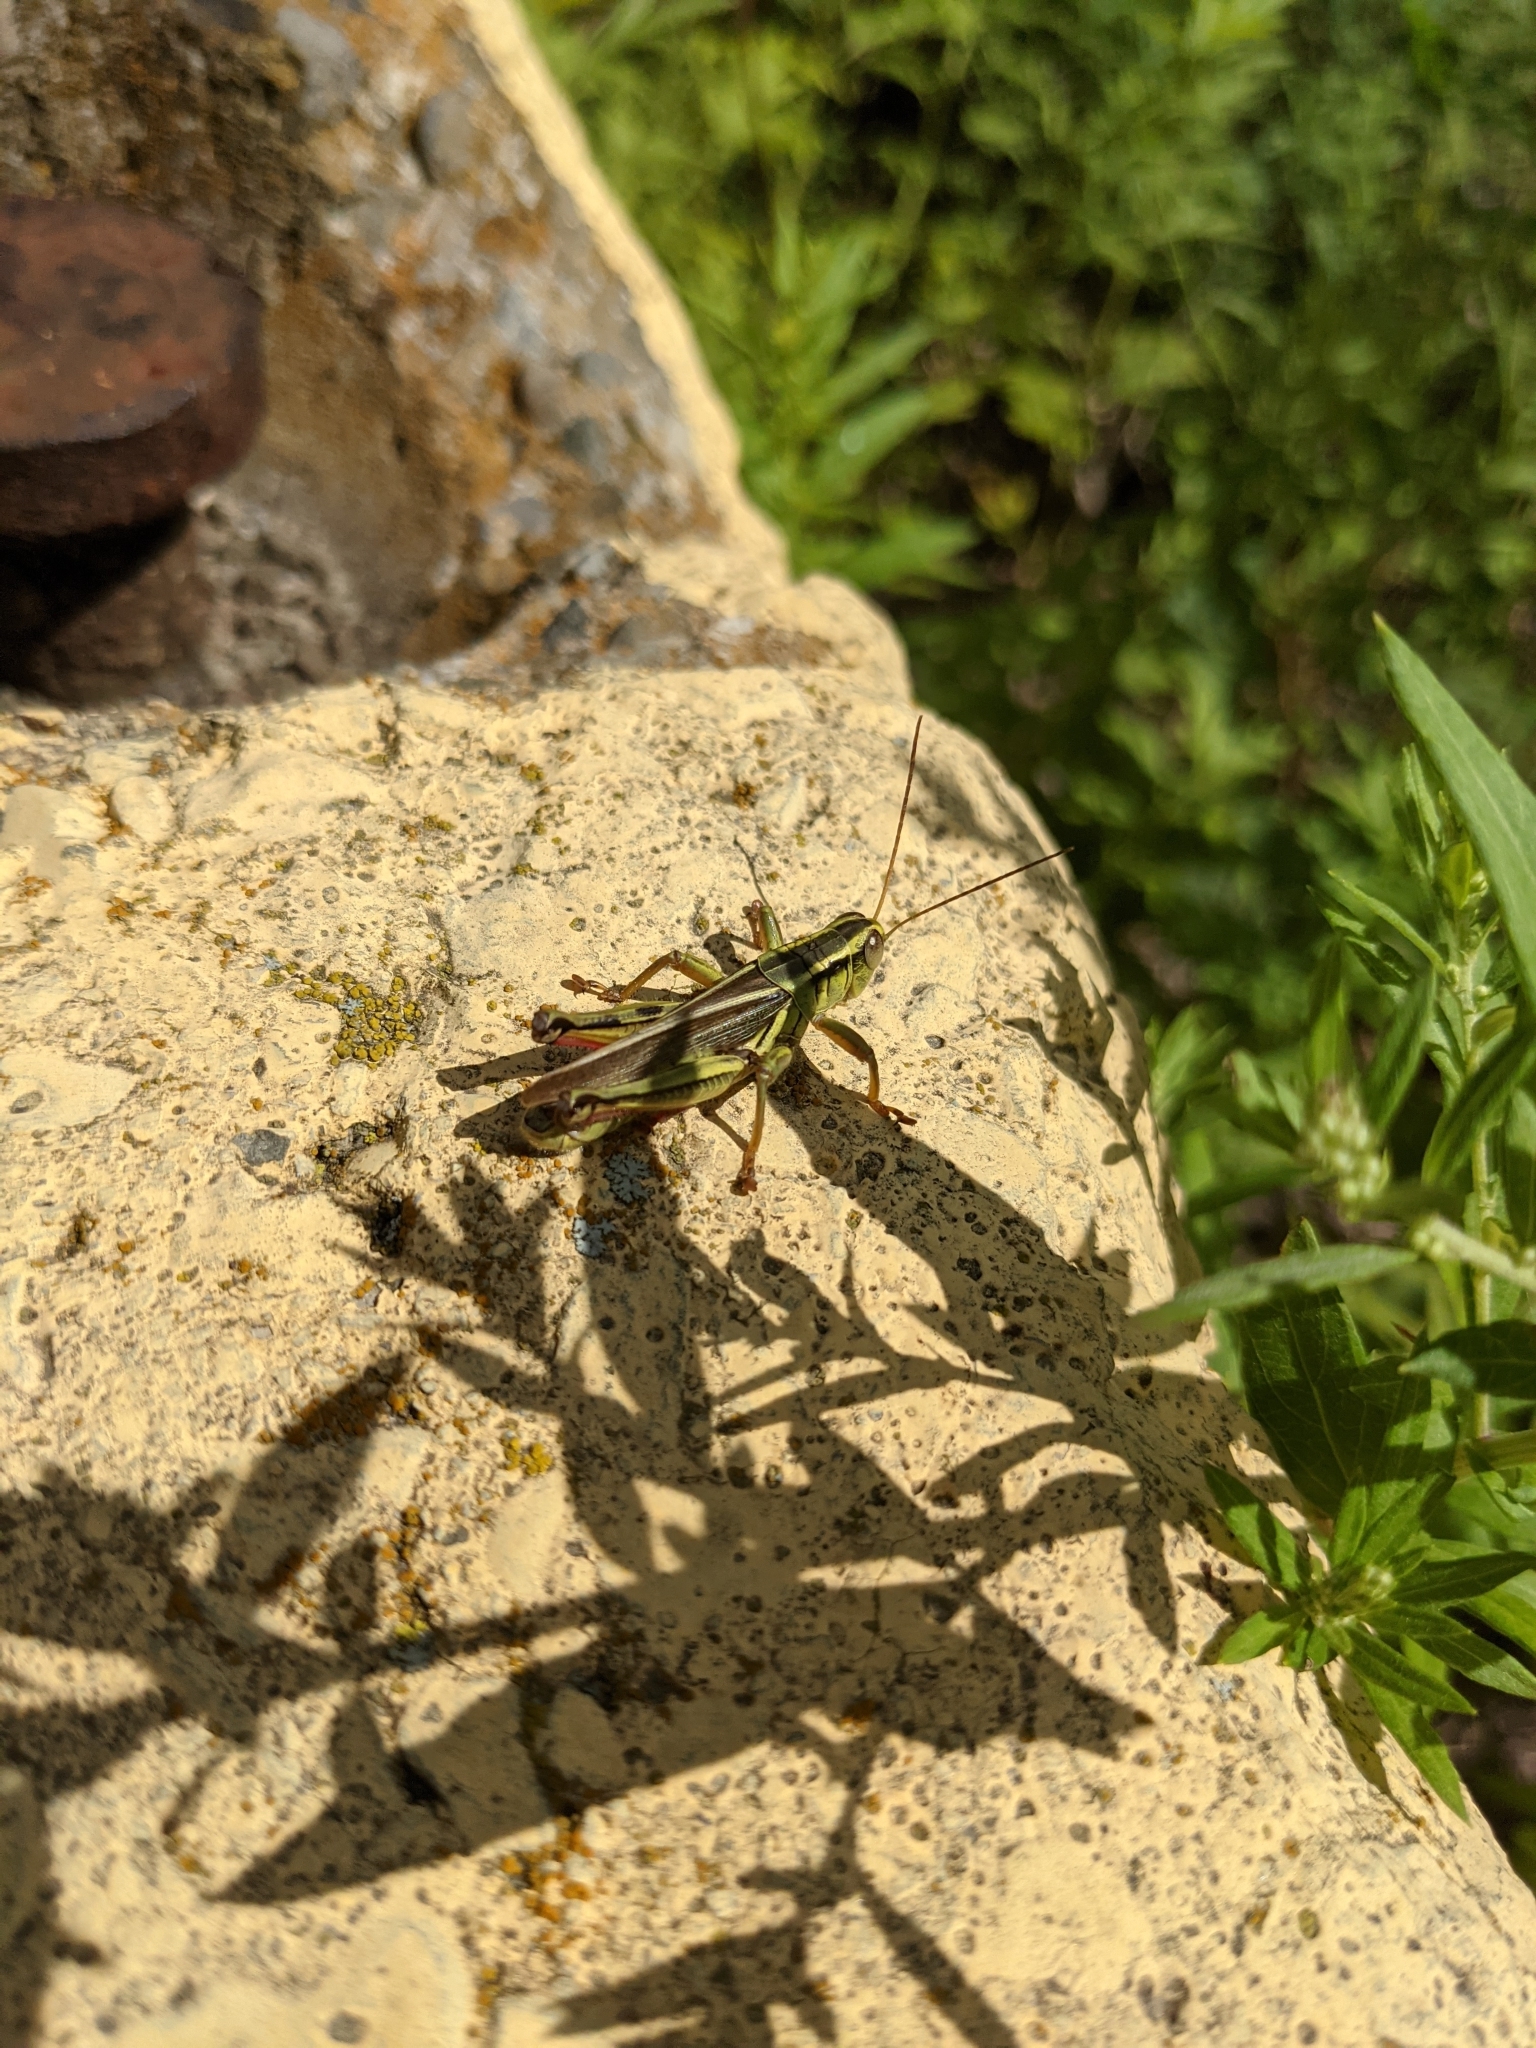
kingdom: Animalia
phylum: Arthropoda
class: Insecta
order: Orthoptera
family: Acrididae
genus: Melanoplus
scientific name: Melanoplus bivittatus
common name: Two-striped grasshopper
